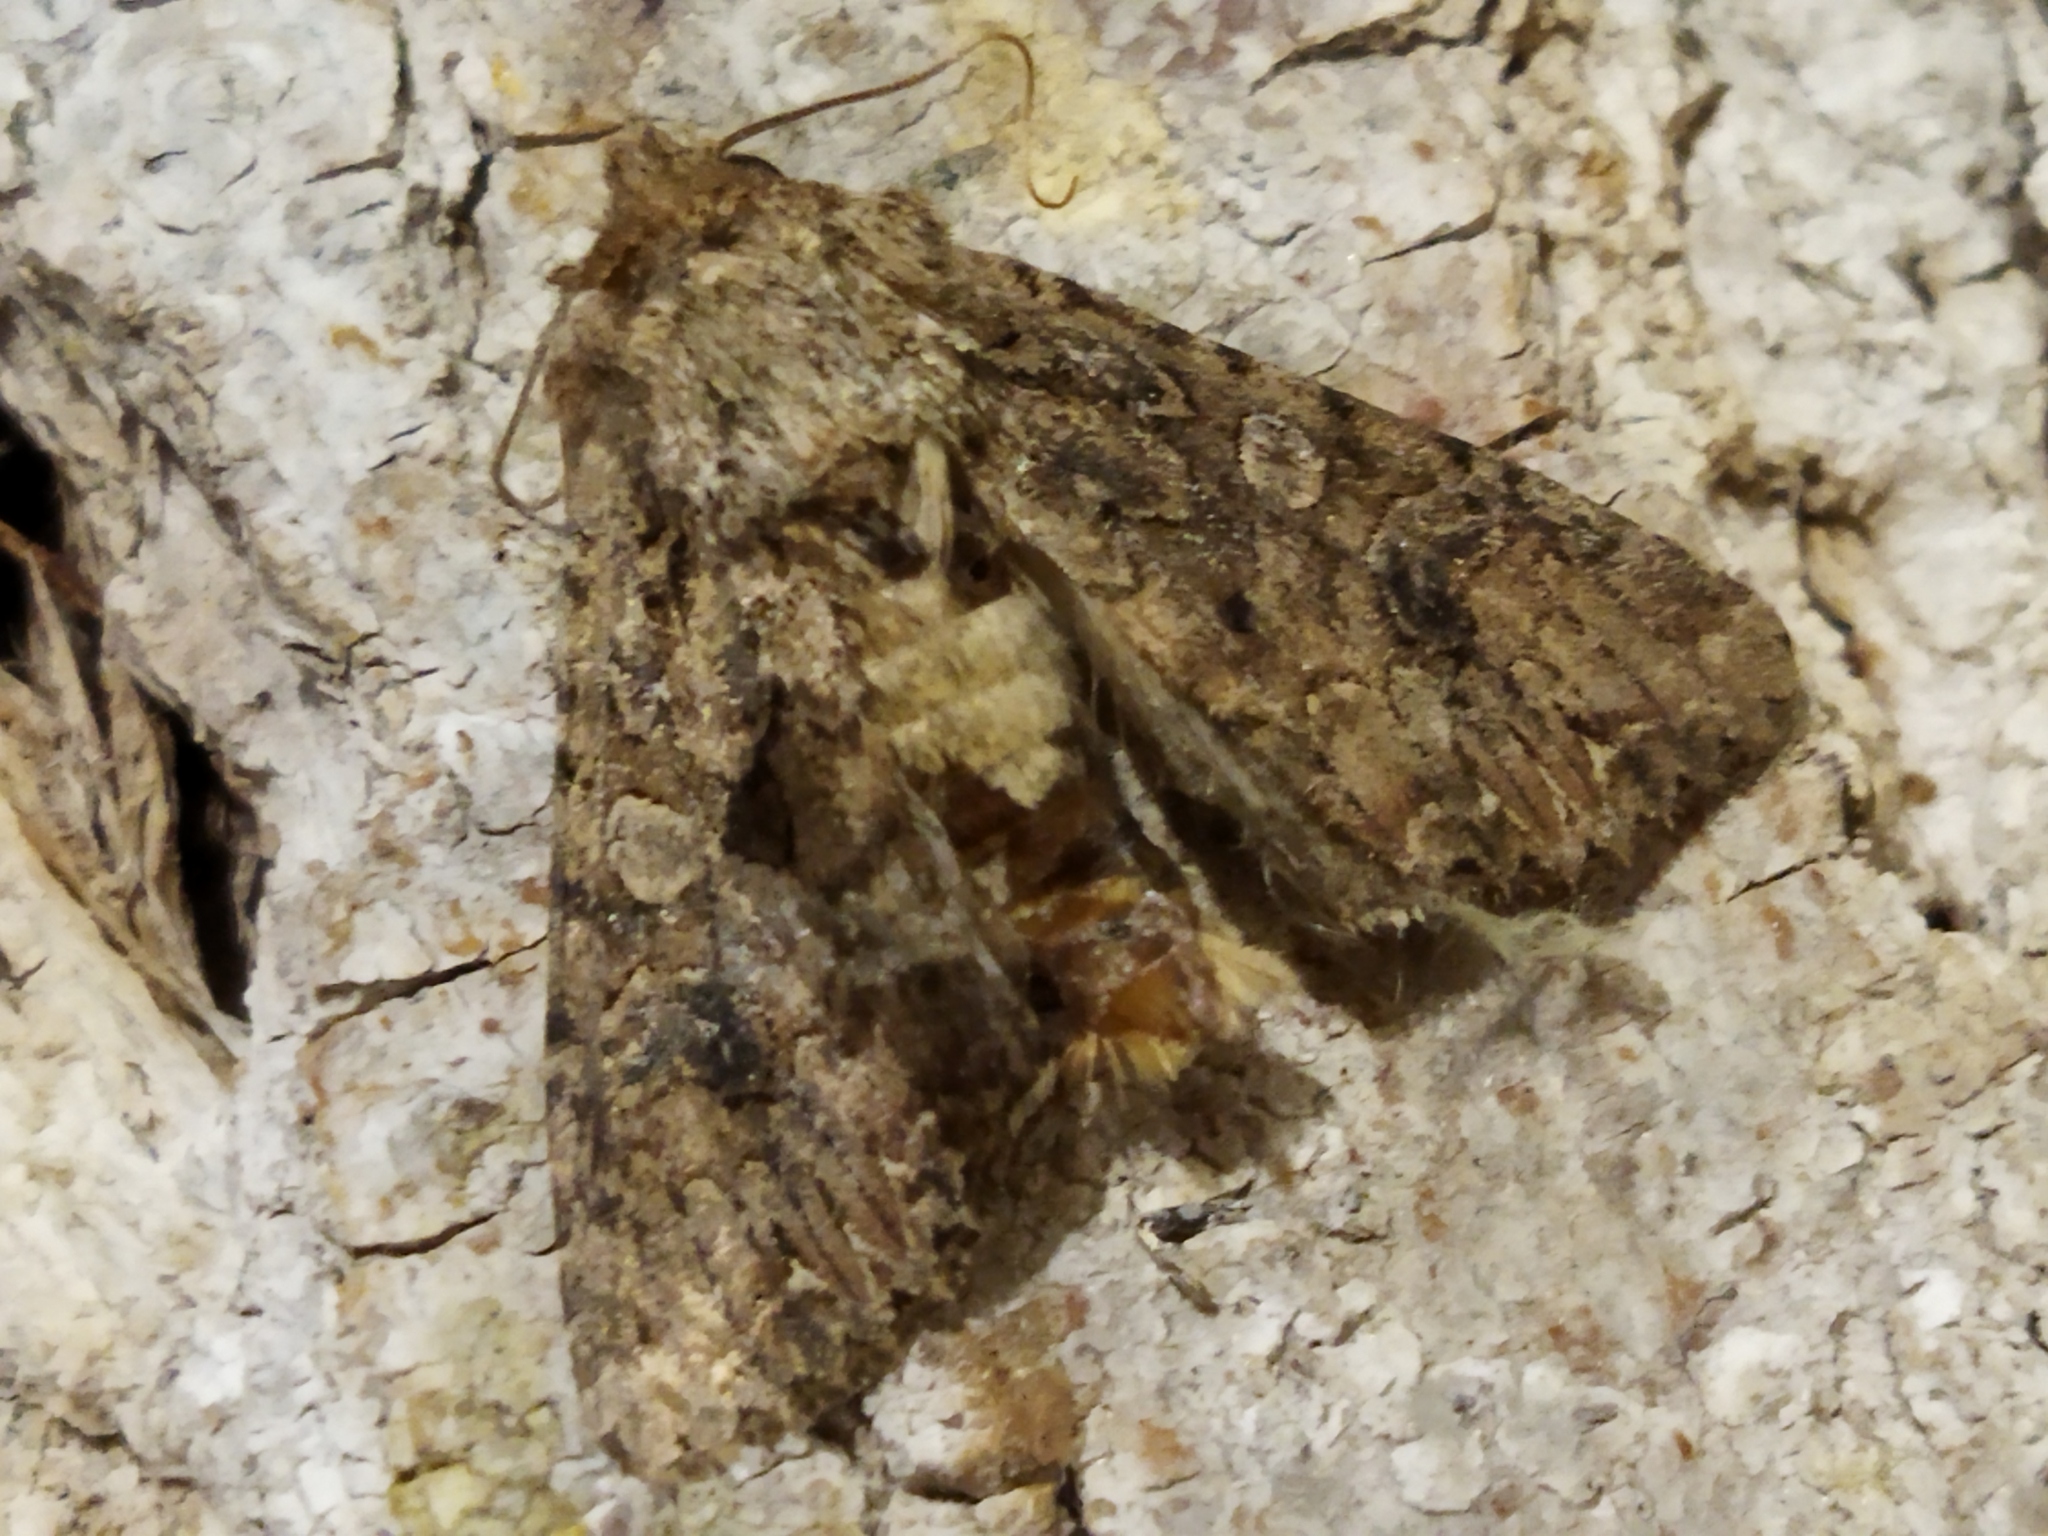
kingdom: Animalia
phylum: Arthropoda
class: Insecta
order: Lepidoptera
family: Noctuidae
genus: Anarta
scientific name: Anarta trifolii
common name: Clover cutworm moth
